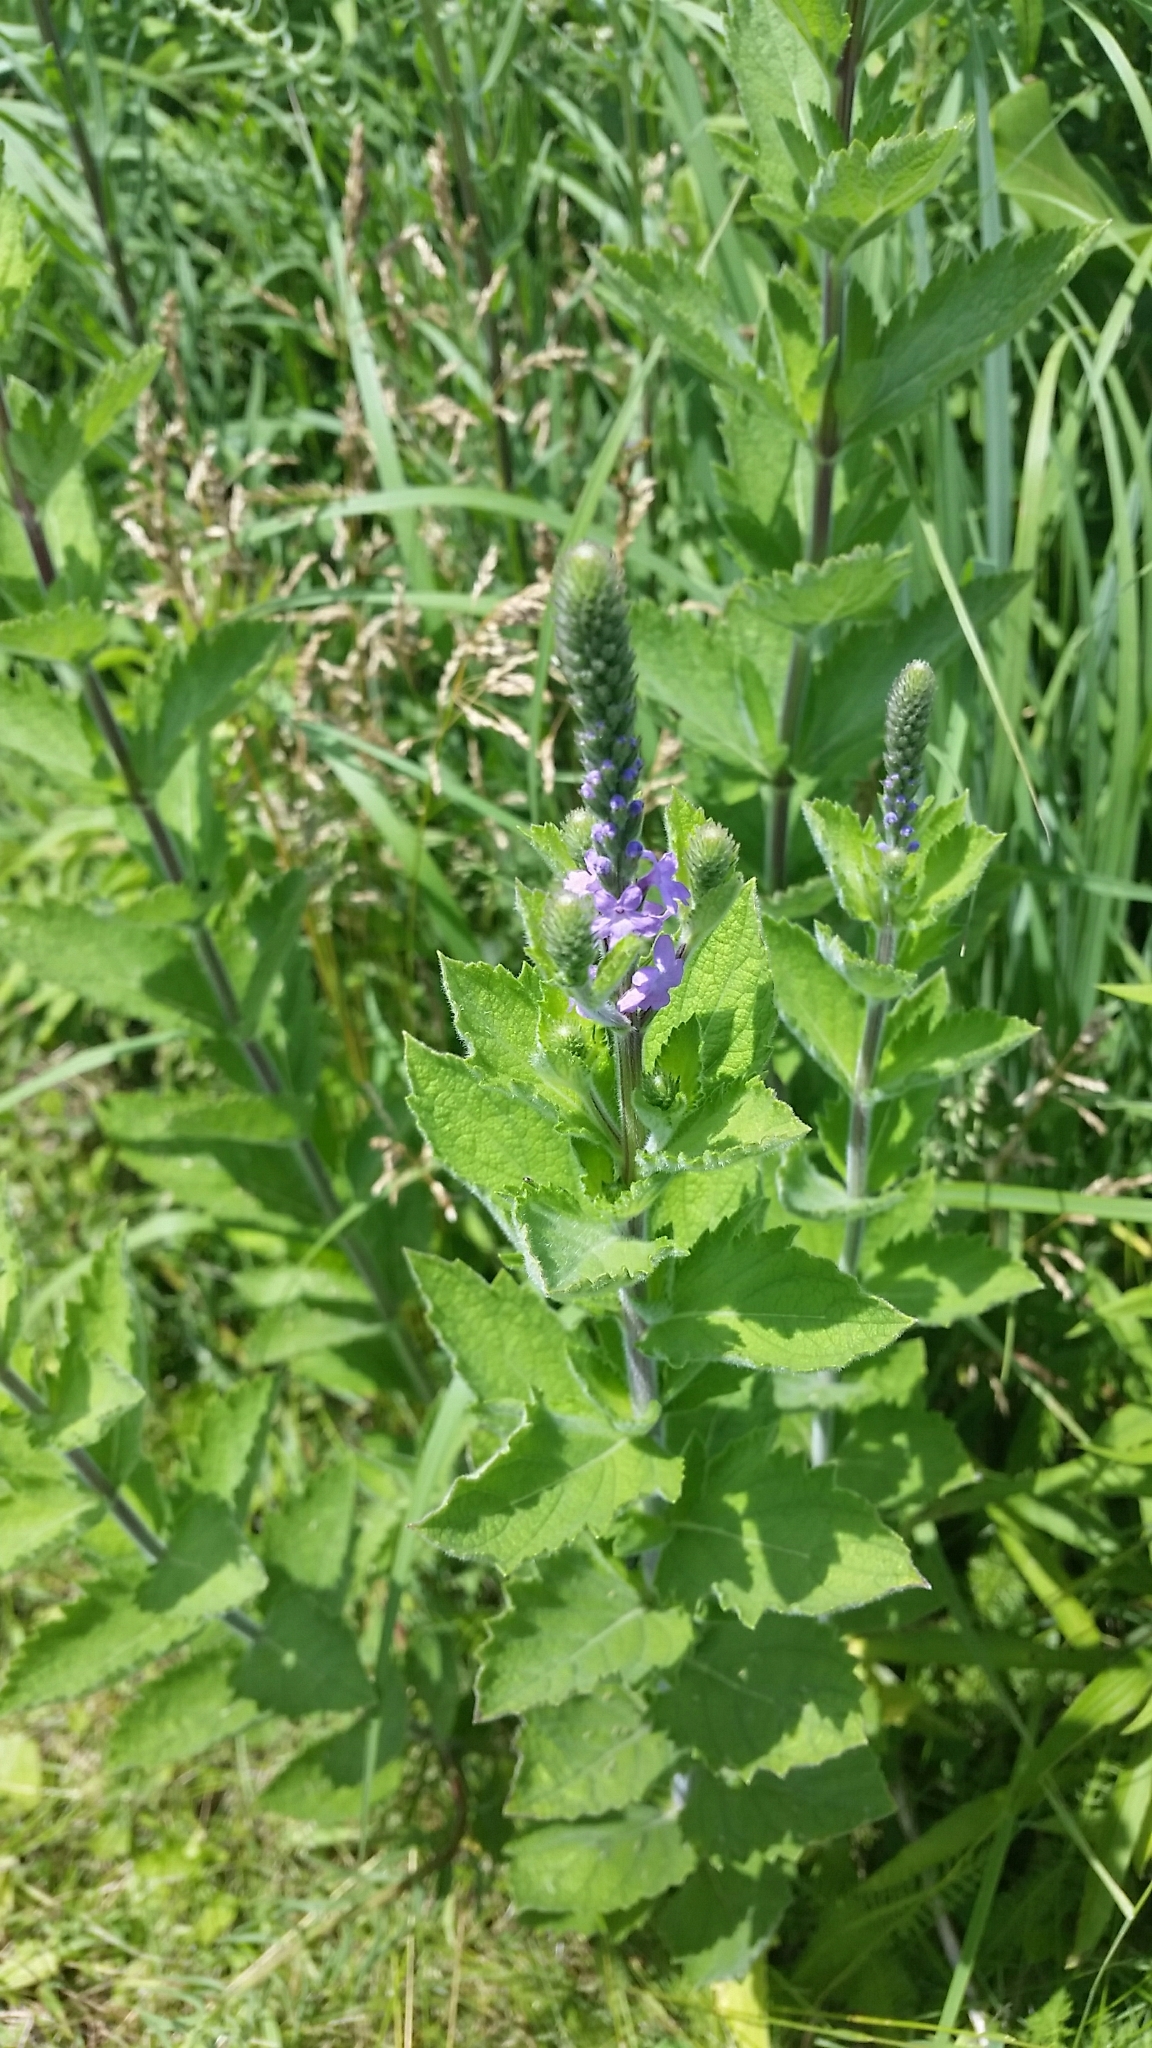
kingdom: Plantae
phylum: Tracheophyta
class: Magnoliopsida
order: Lamiales
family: Verbenaceae
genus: Verbena
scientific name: Verbena stricta
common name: Hoary vervain
